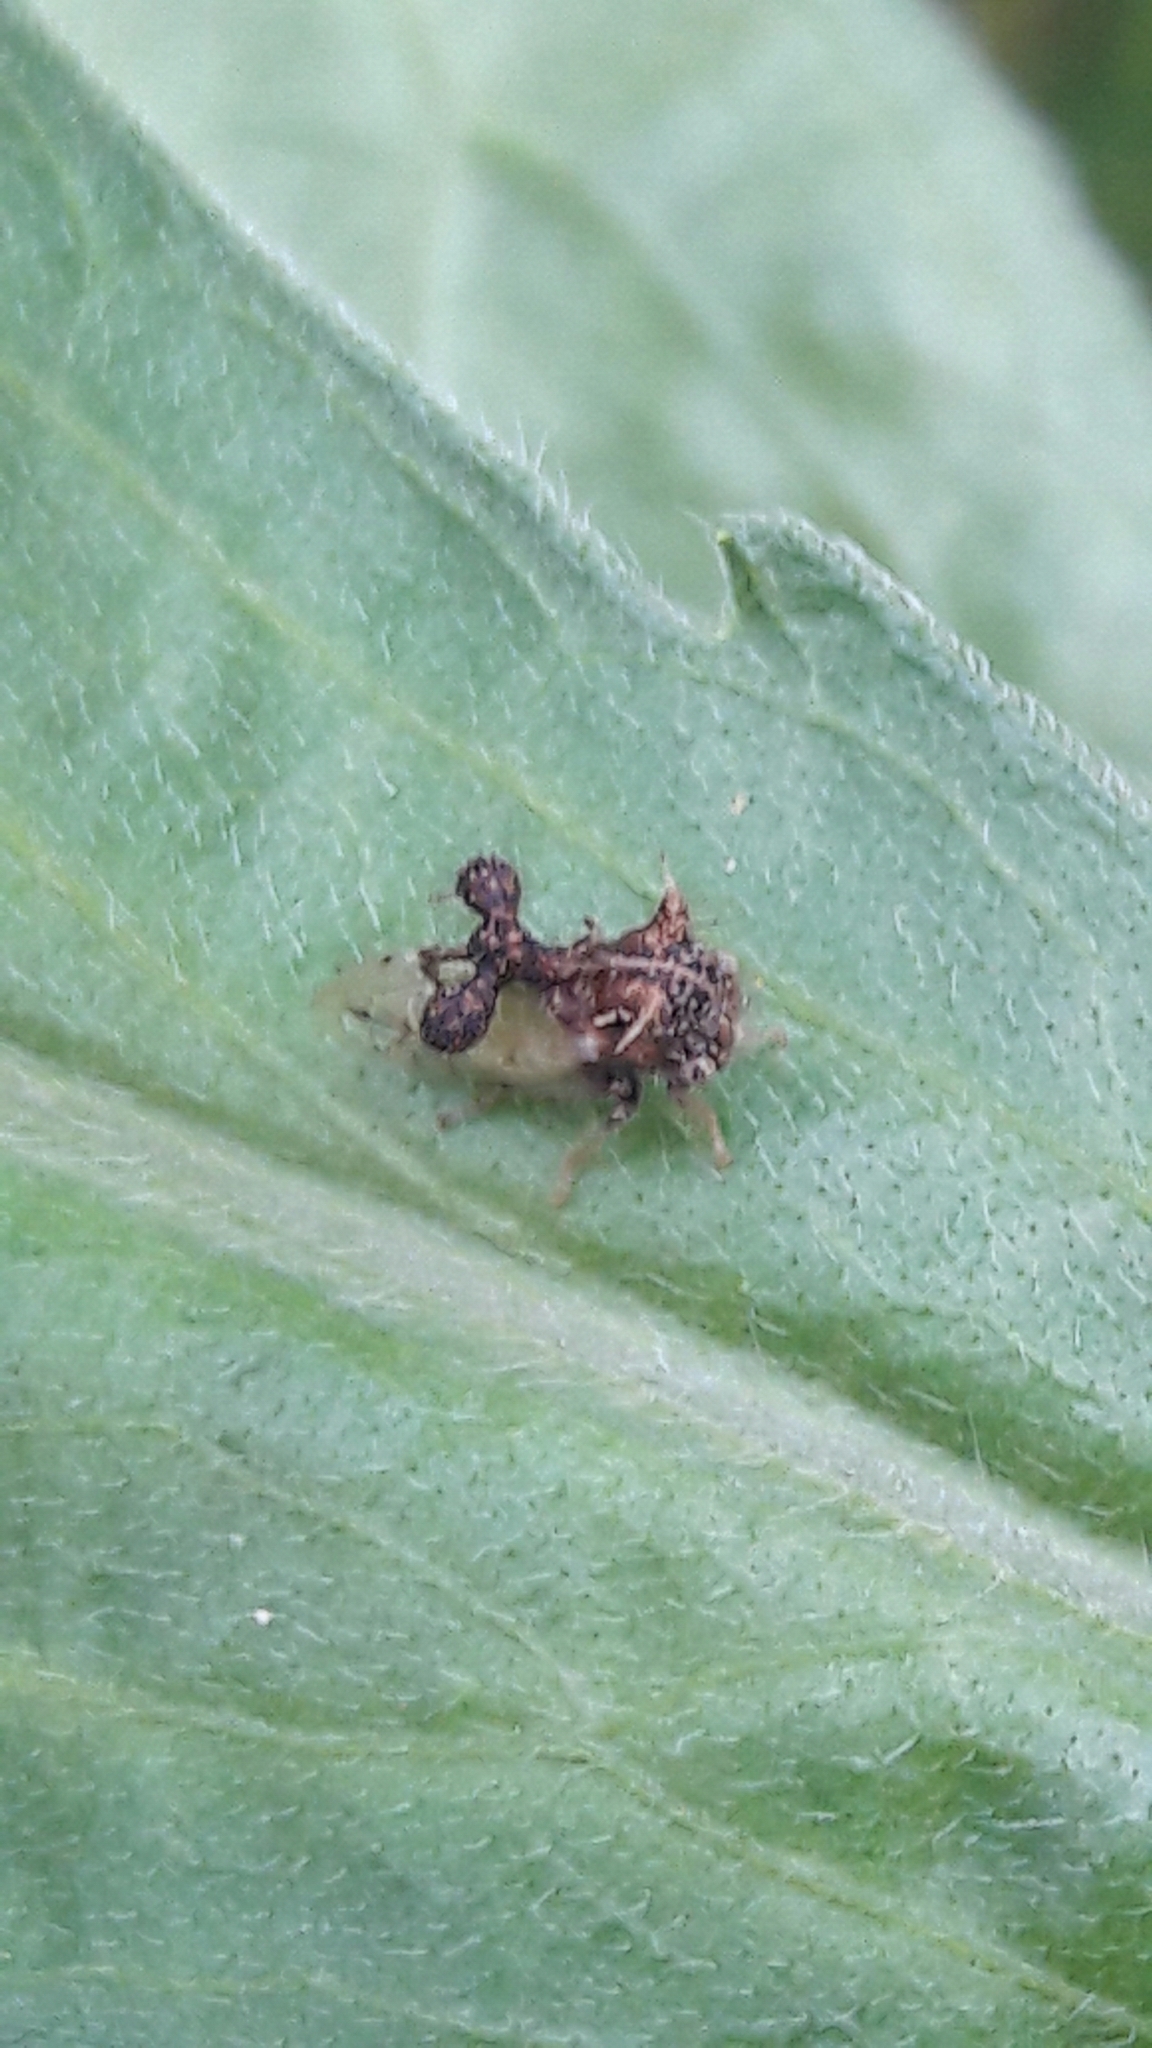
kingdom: Animalia
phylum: Arthropoda
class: Insecta
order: Hemiptera
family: Membracidae
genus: Cyphonia
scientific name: Cyphonia claviger
